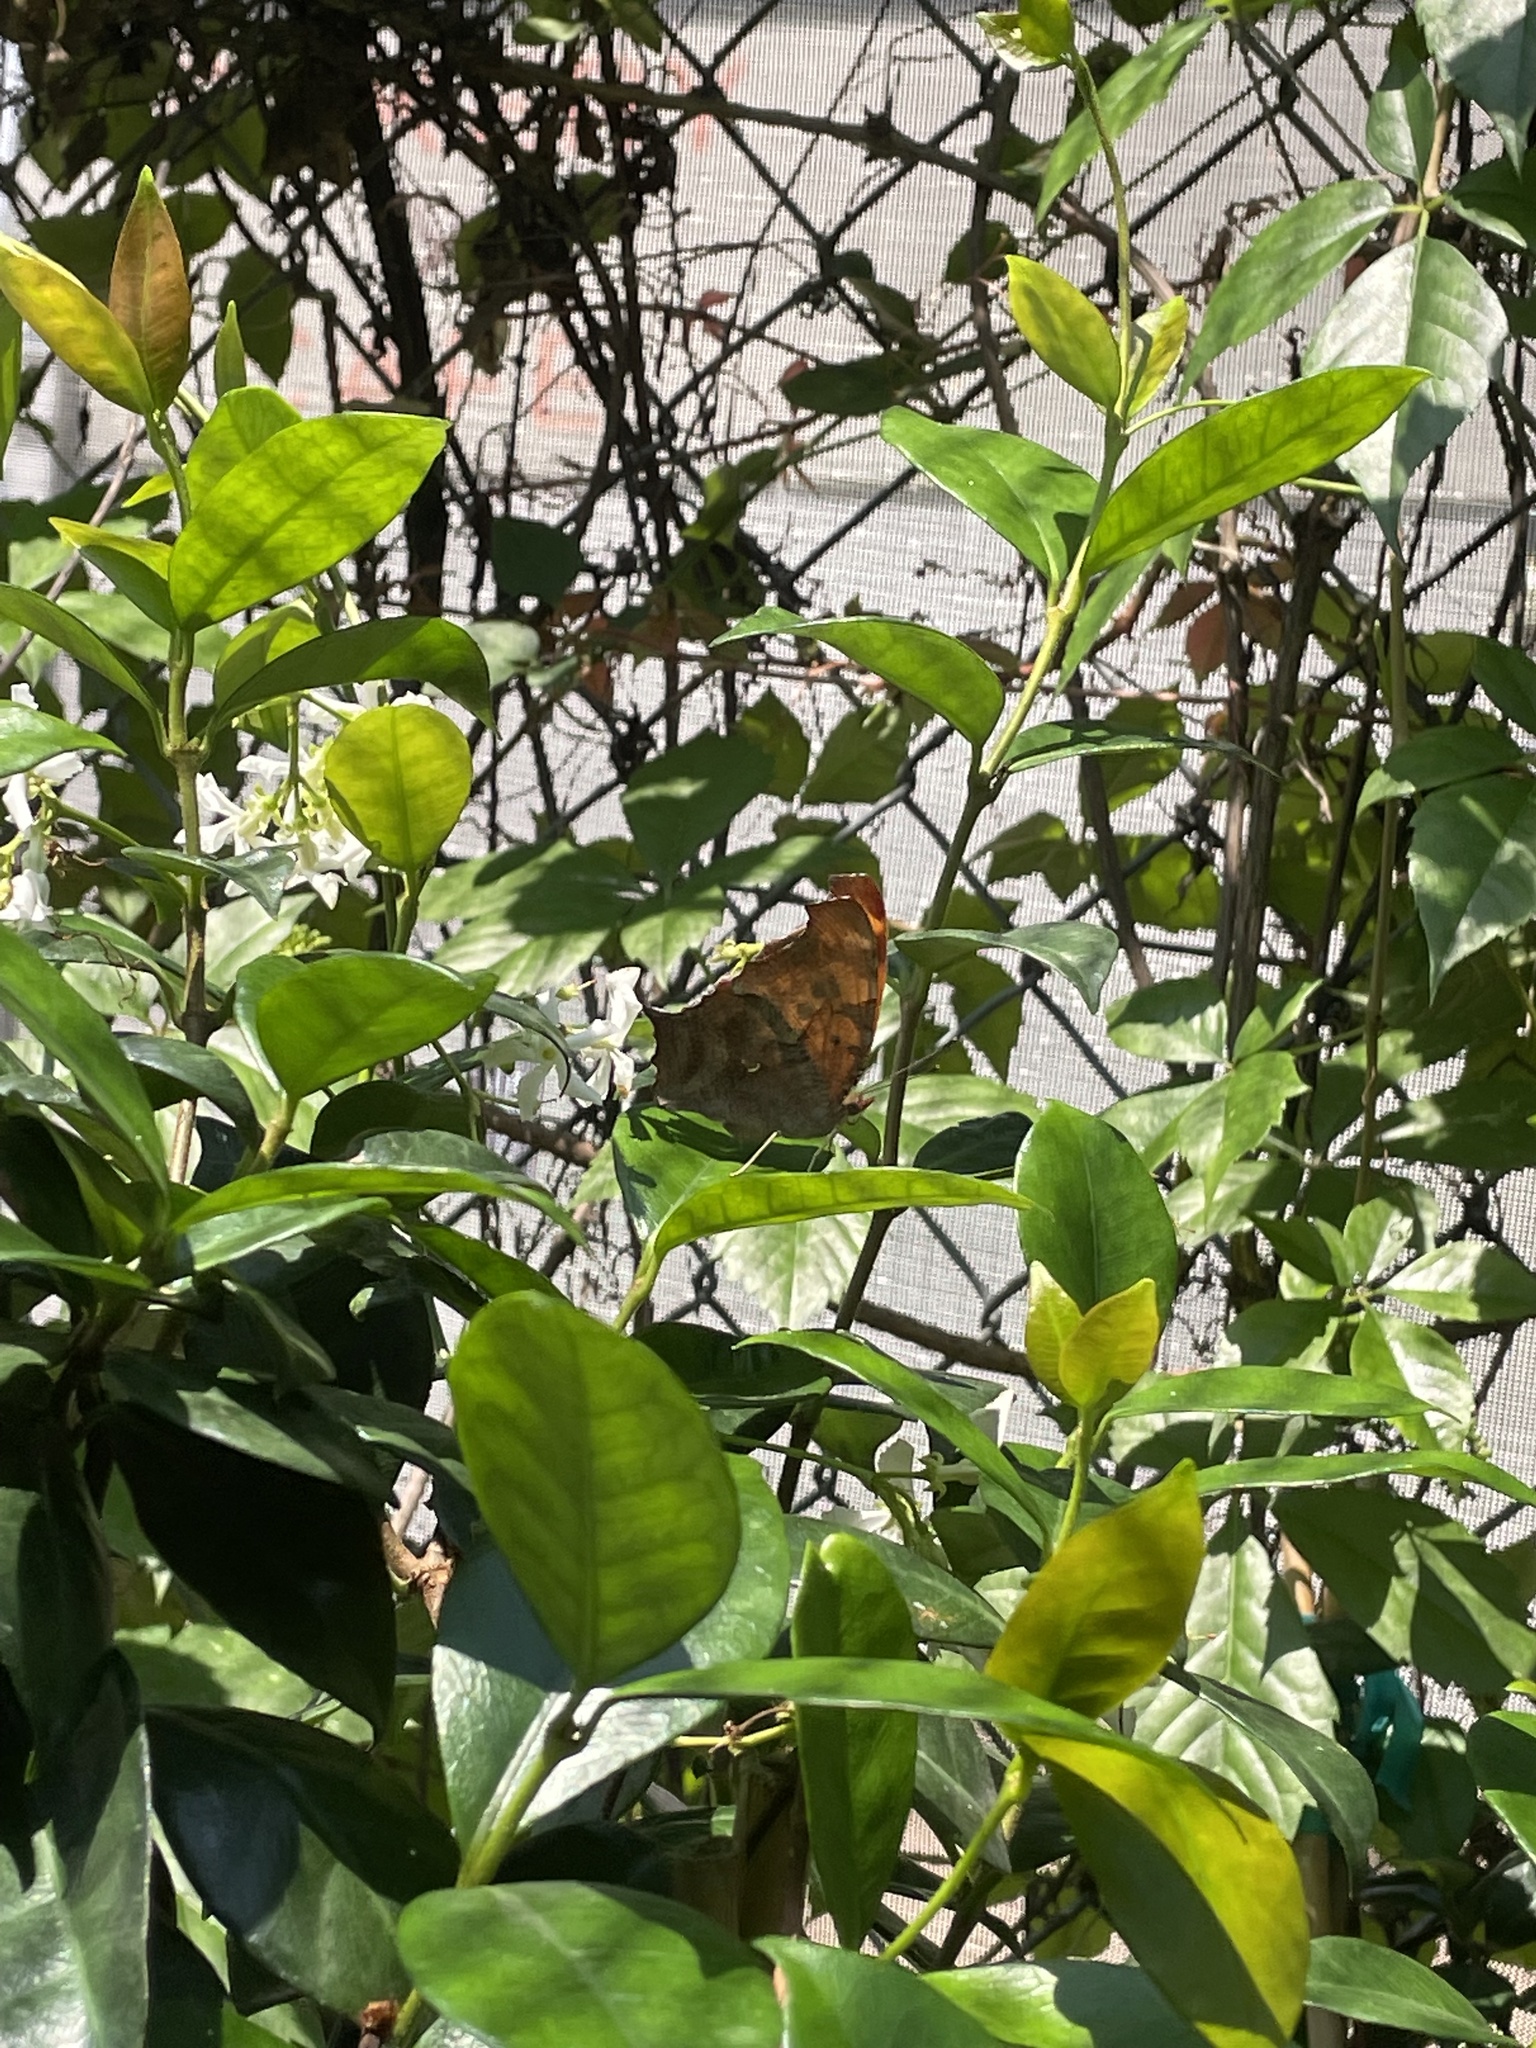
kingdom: Animalia
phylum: Arthropoda
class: Insecta
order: Lepidoptera
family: Nymphalidae
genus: Polygonia
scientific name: Polygonia interrogationis
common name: Question mark
